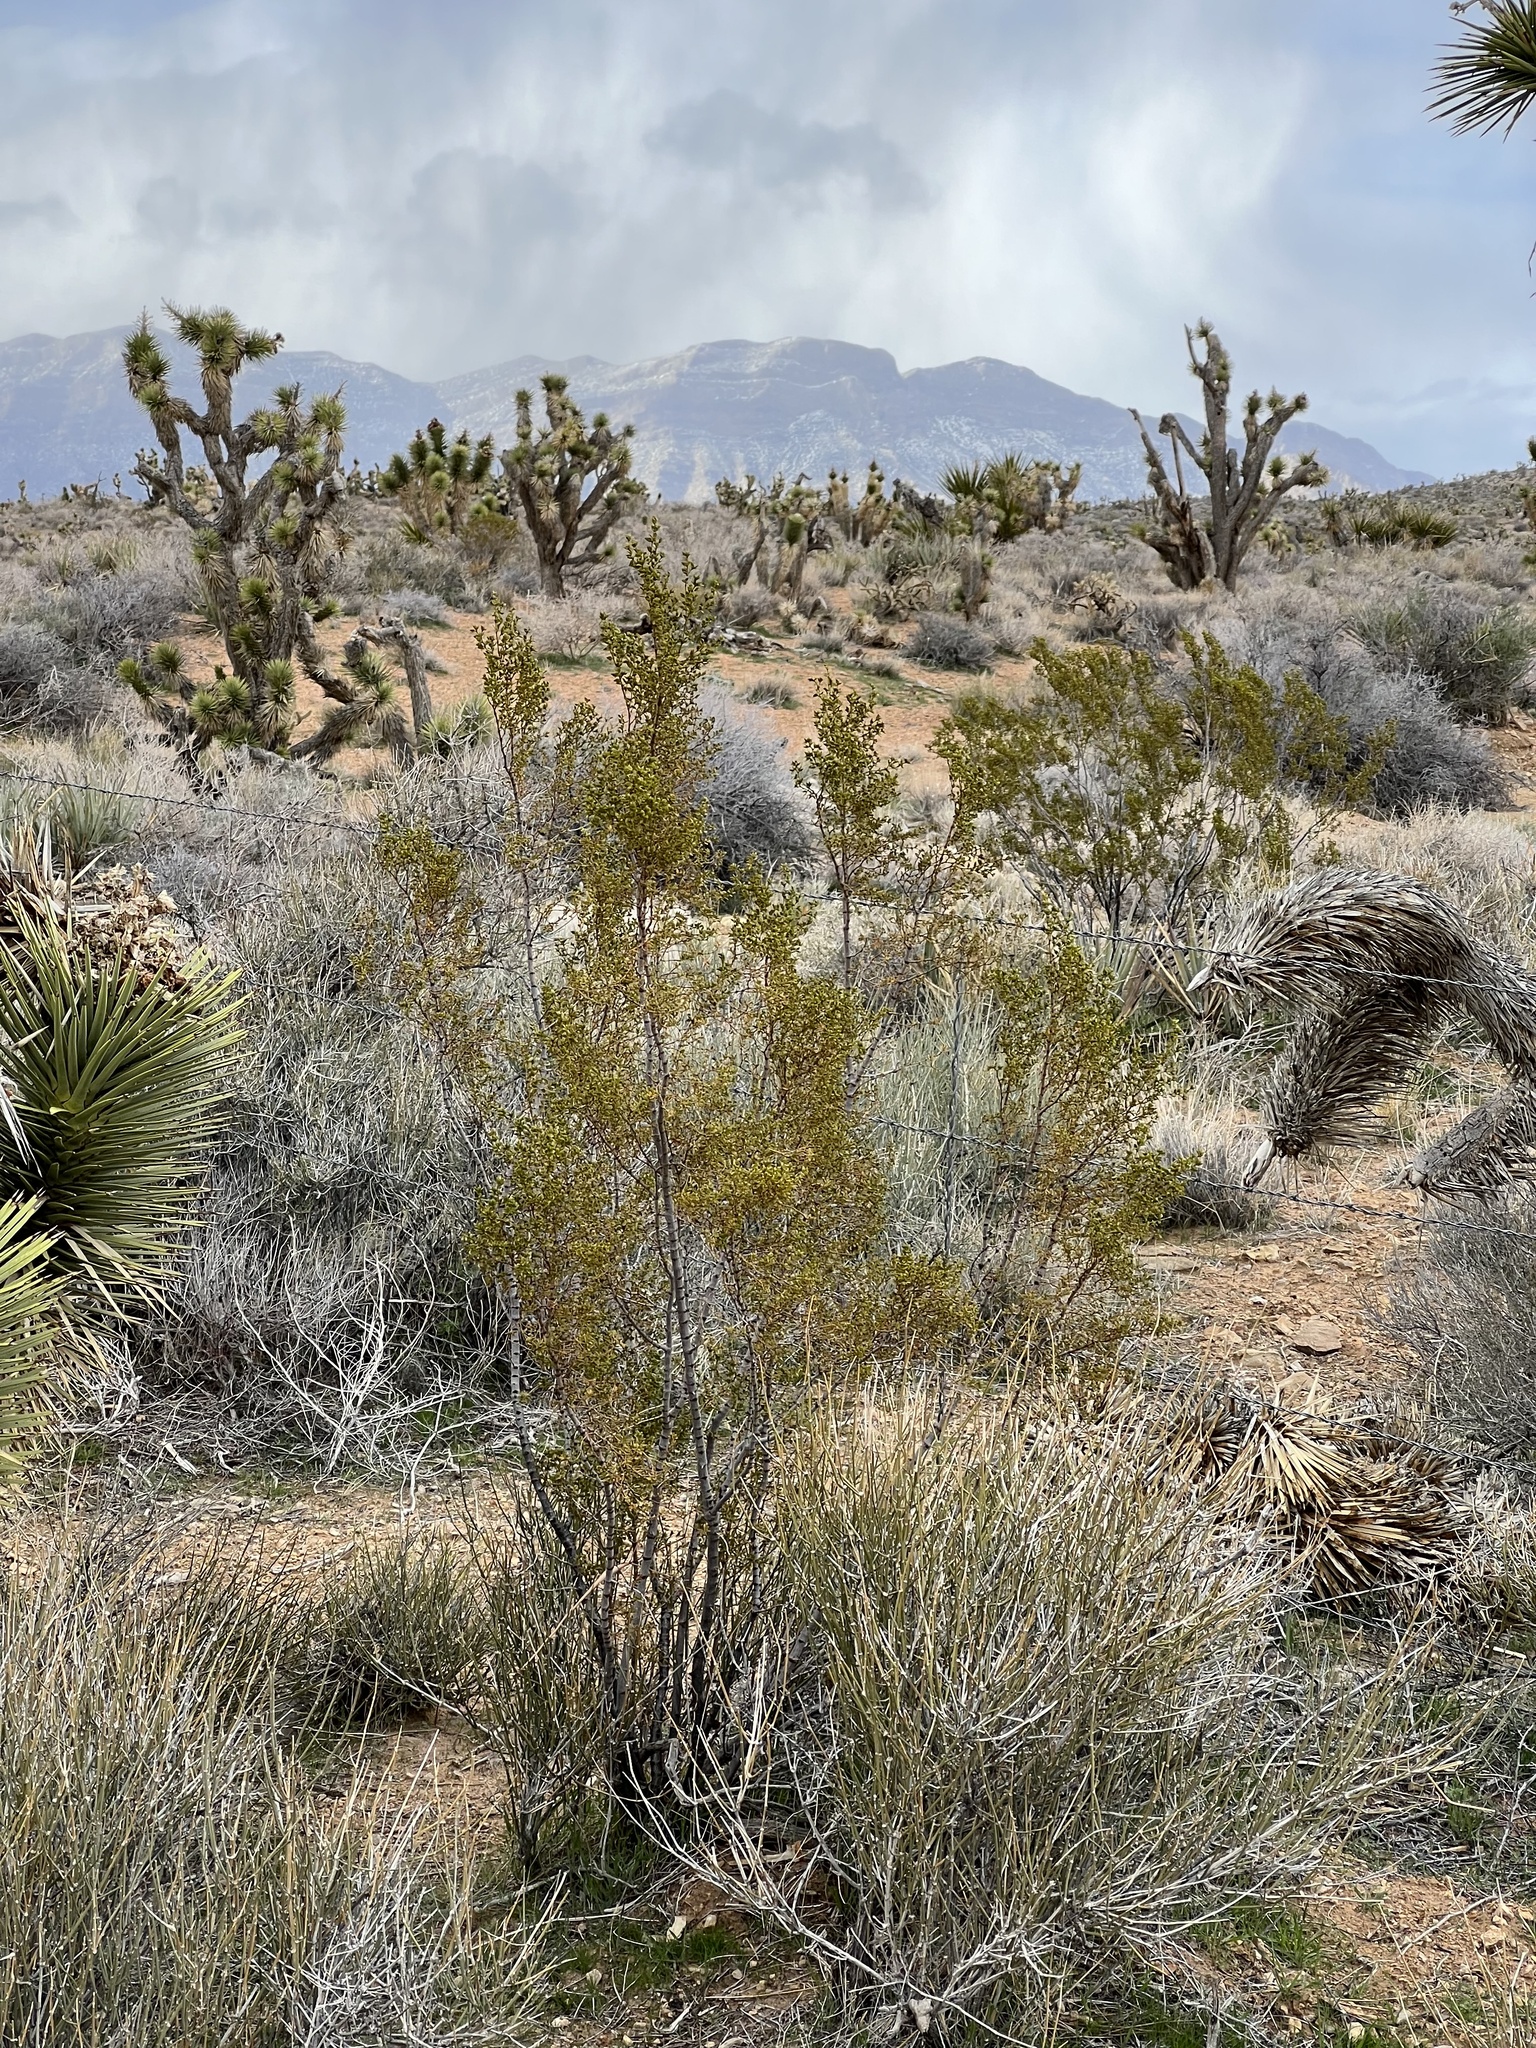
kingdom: Plantae
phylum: Tracheophyta
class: Magnoliopsida
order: Zygophyllales
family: Zygophyllaceae
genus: Larrea
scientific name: Larrea tridentata
